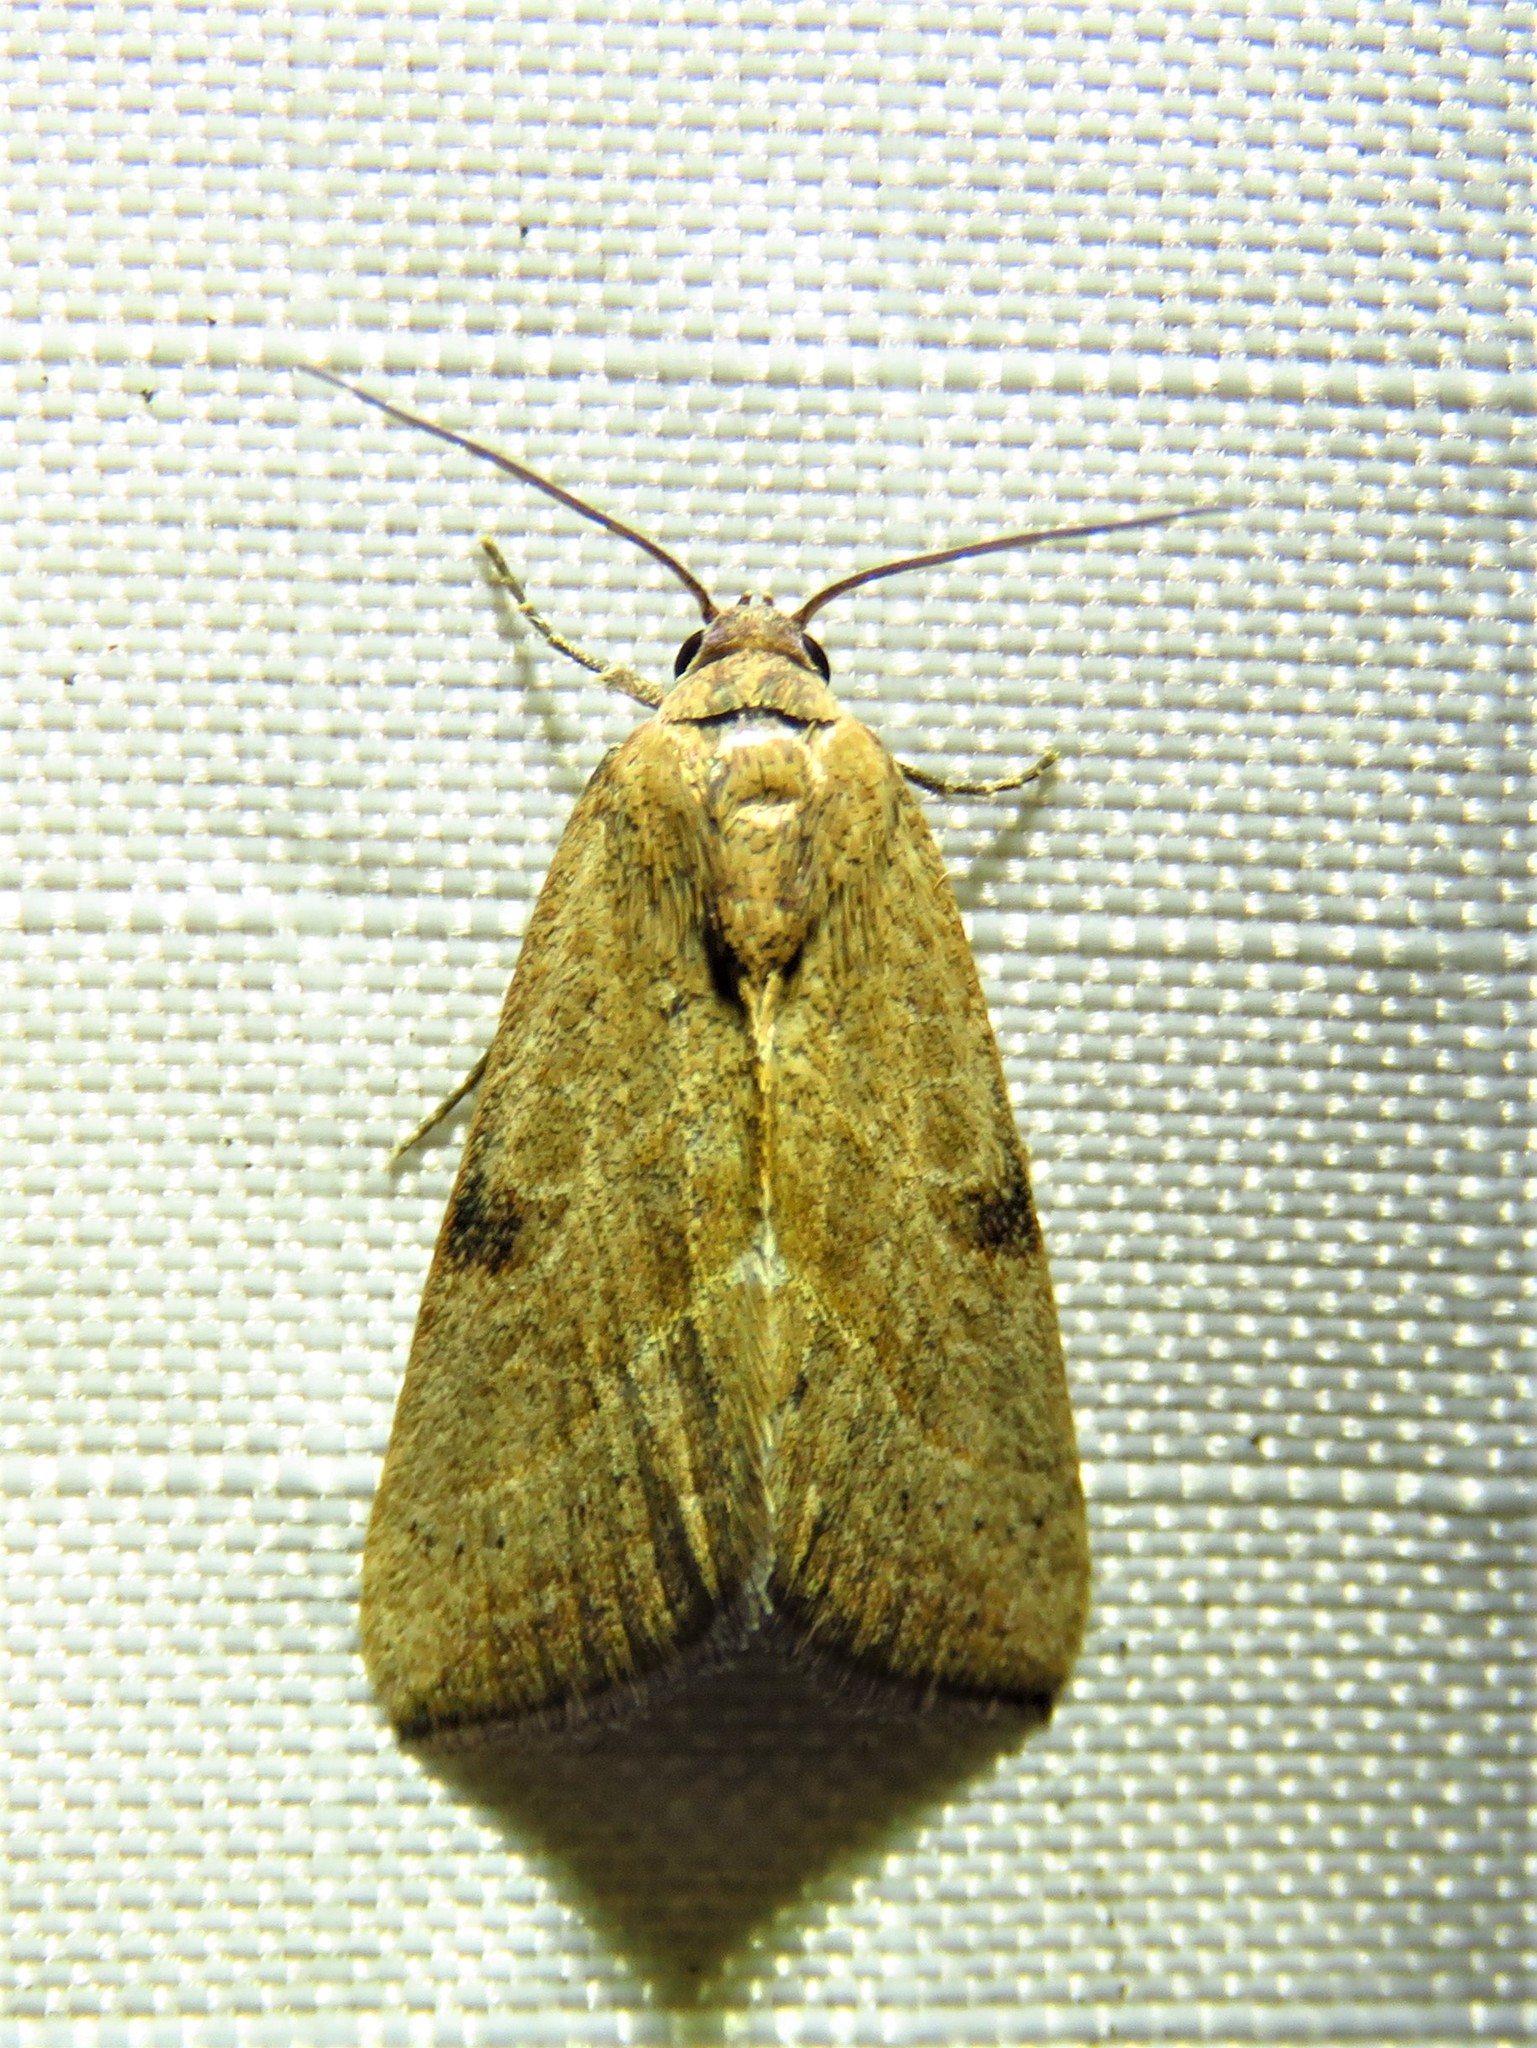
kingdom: Animalia
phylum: Arthropoda
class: Insecta
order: Lepidoptera
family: Noctuidae
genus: Galgula
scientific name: Galgula partita
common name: Wedgeling
